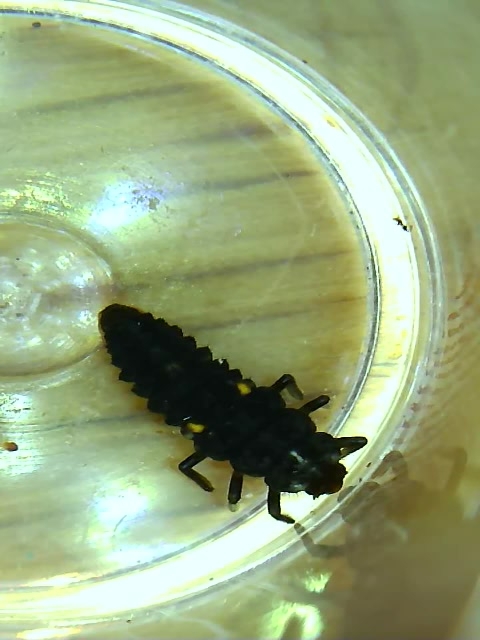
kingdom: Animalia
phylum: Arthropoda
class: Insecta
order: Coleoptera
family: Coccinellidae
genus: Adalia
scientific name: Adalia bipunctata
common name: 2-spot ladybird
